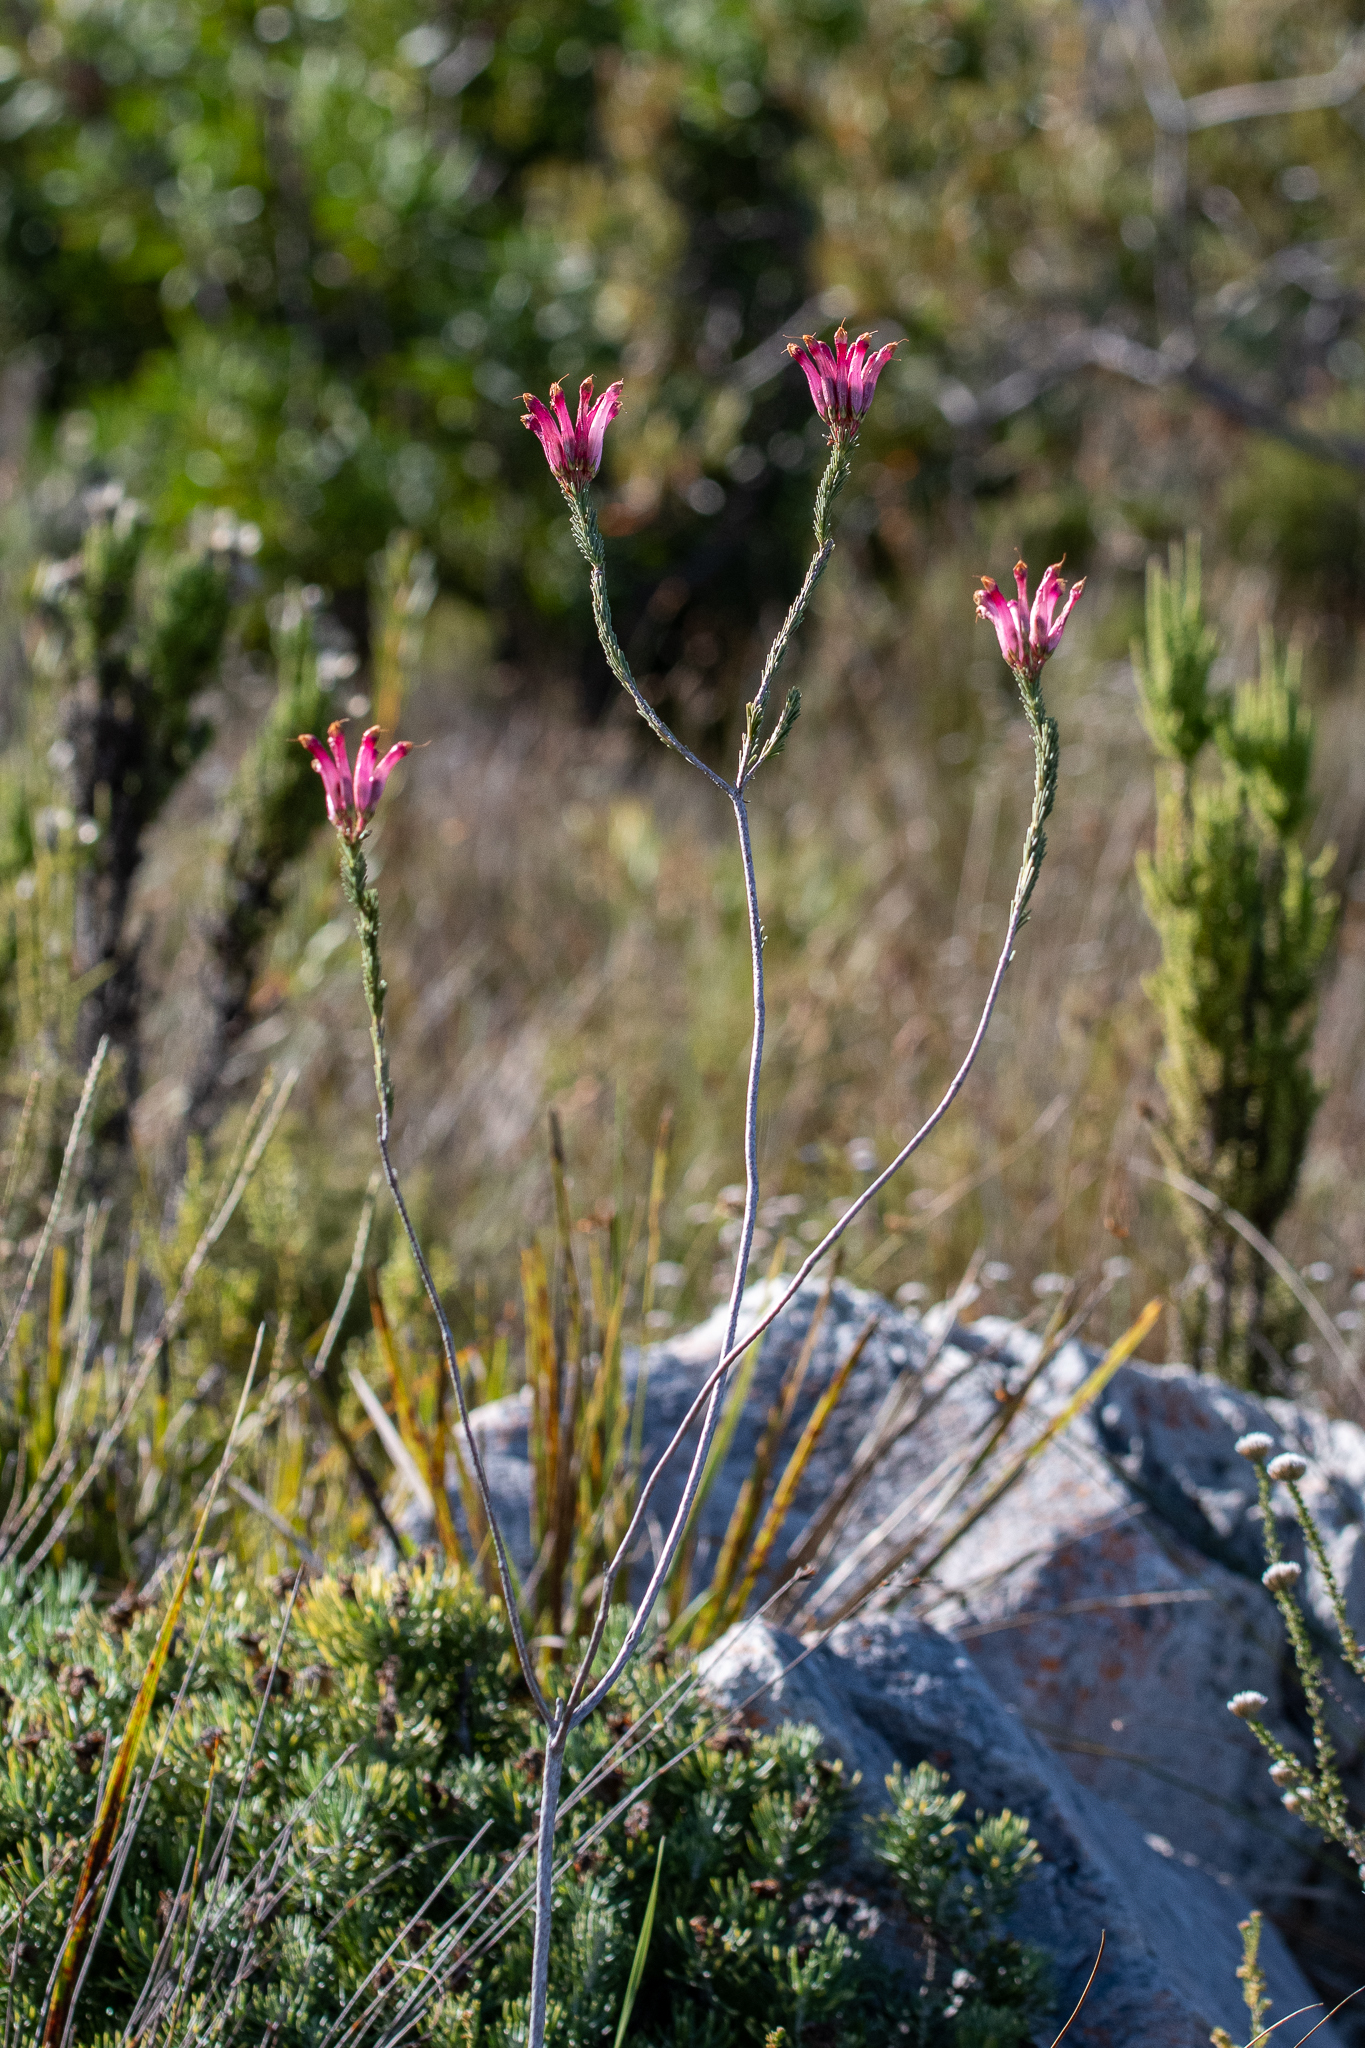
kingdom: Plantae
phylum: Tracheophyta
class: Magnoliopsida
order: Ericales
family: Ericaceae
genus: Erica
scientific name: Erica fascicularis
